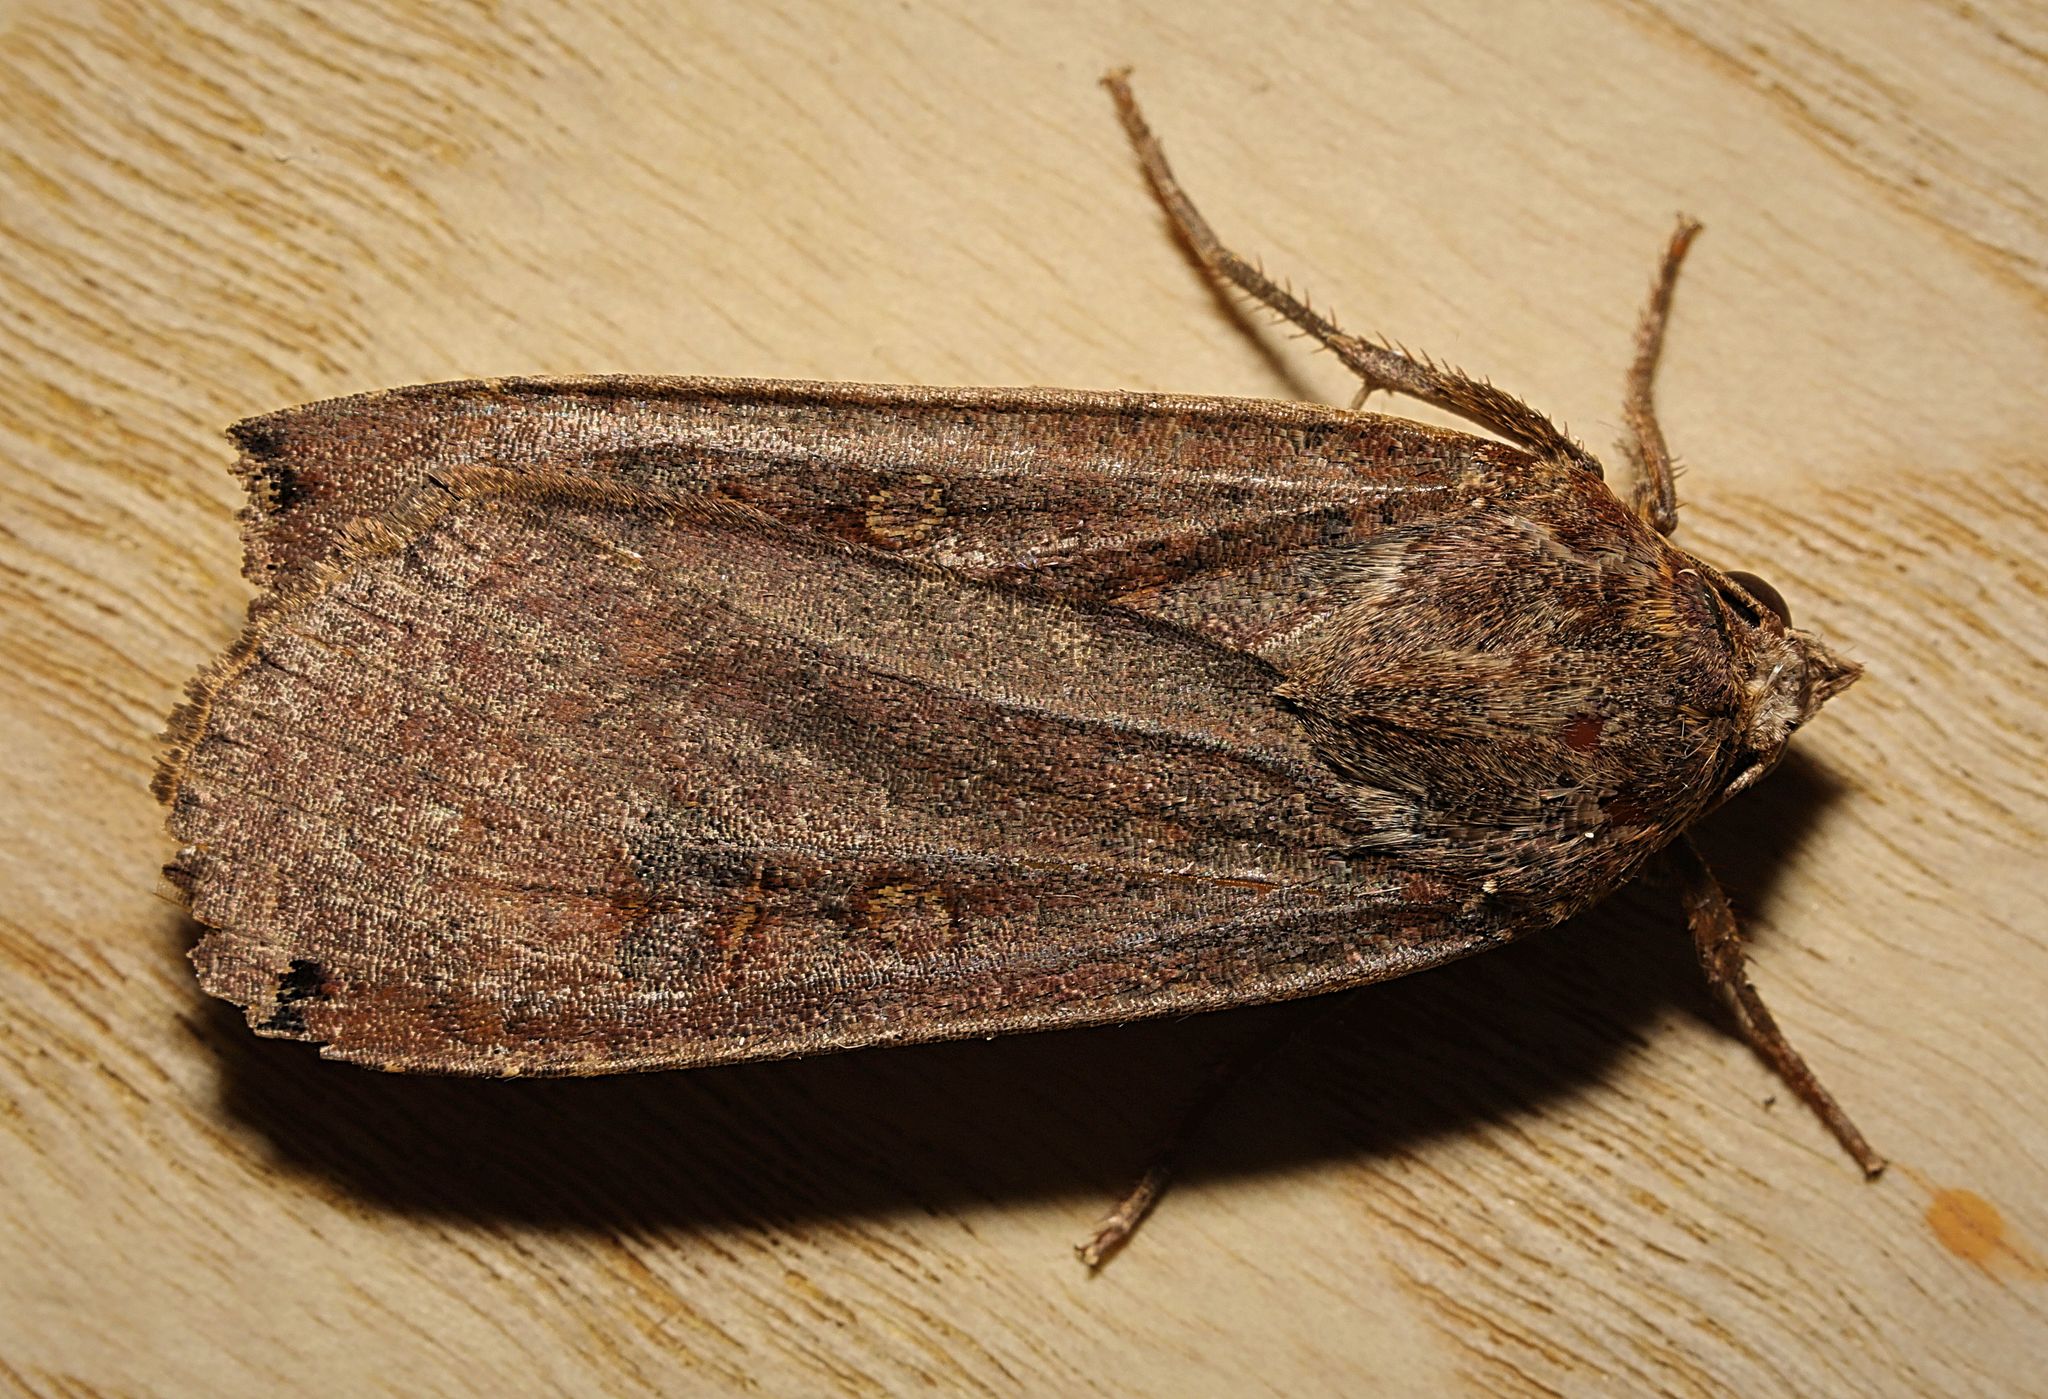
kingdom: Animalia
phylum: Arthropoda
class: Insecta
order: Lepidoptera
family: Noctuidae
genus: Noctua
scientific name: Noctua pronuba
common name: Large yellow underwing
